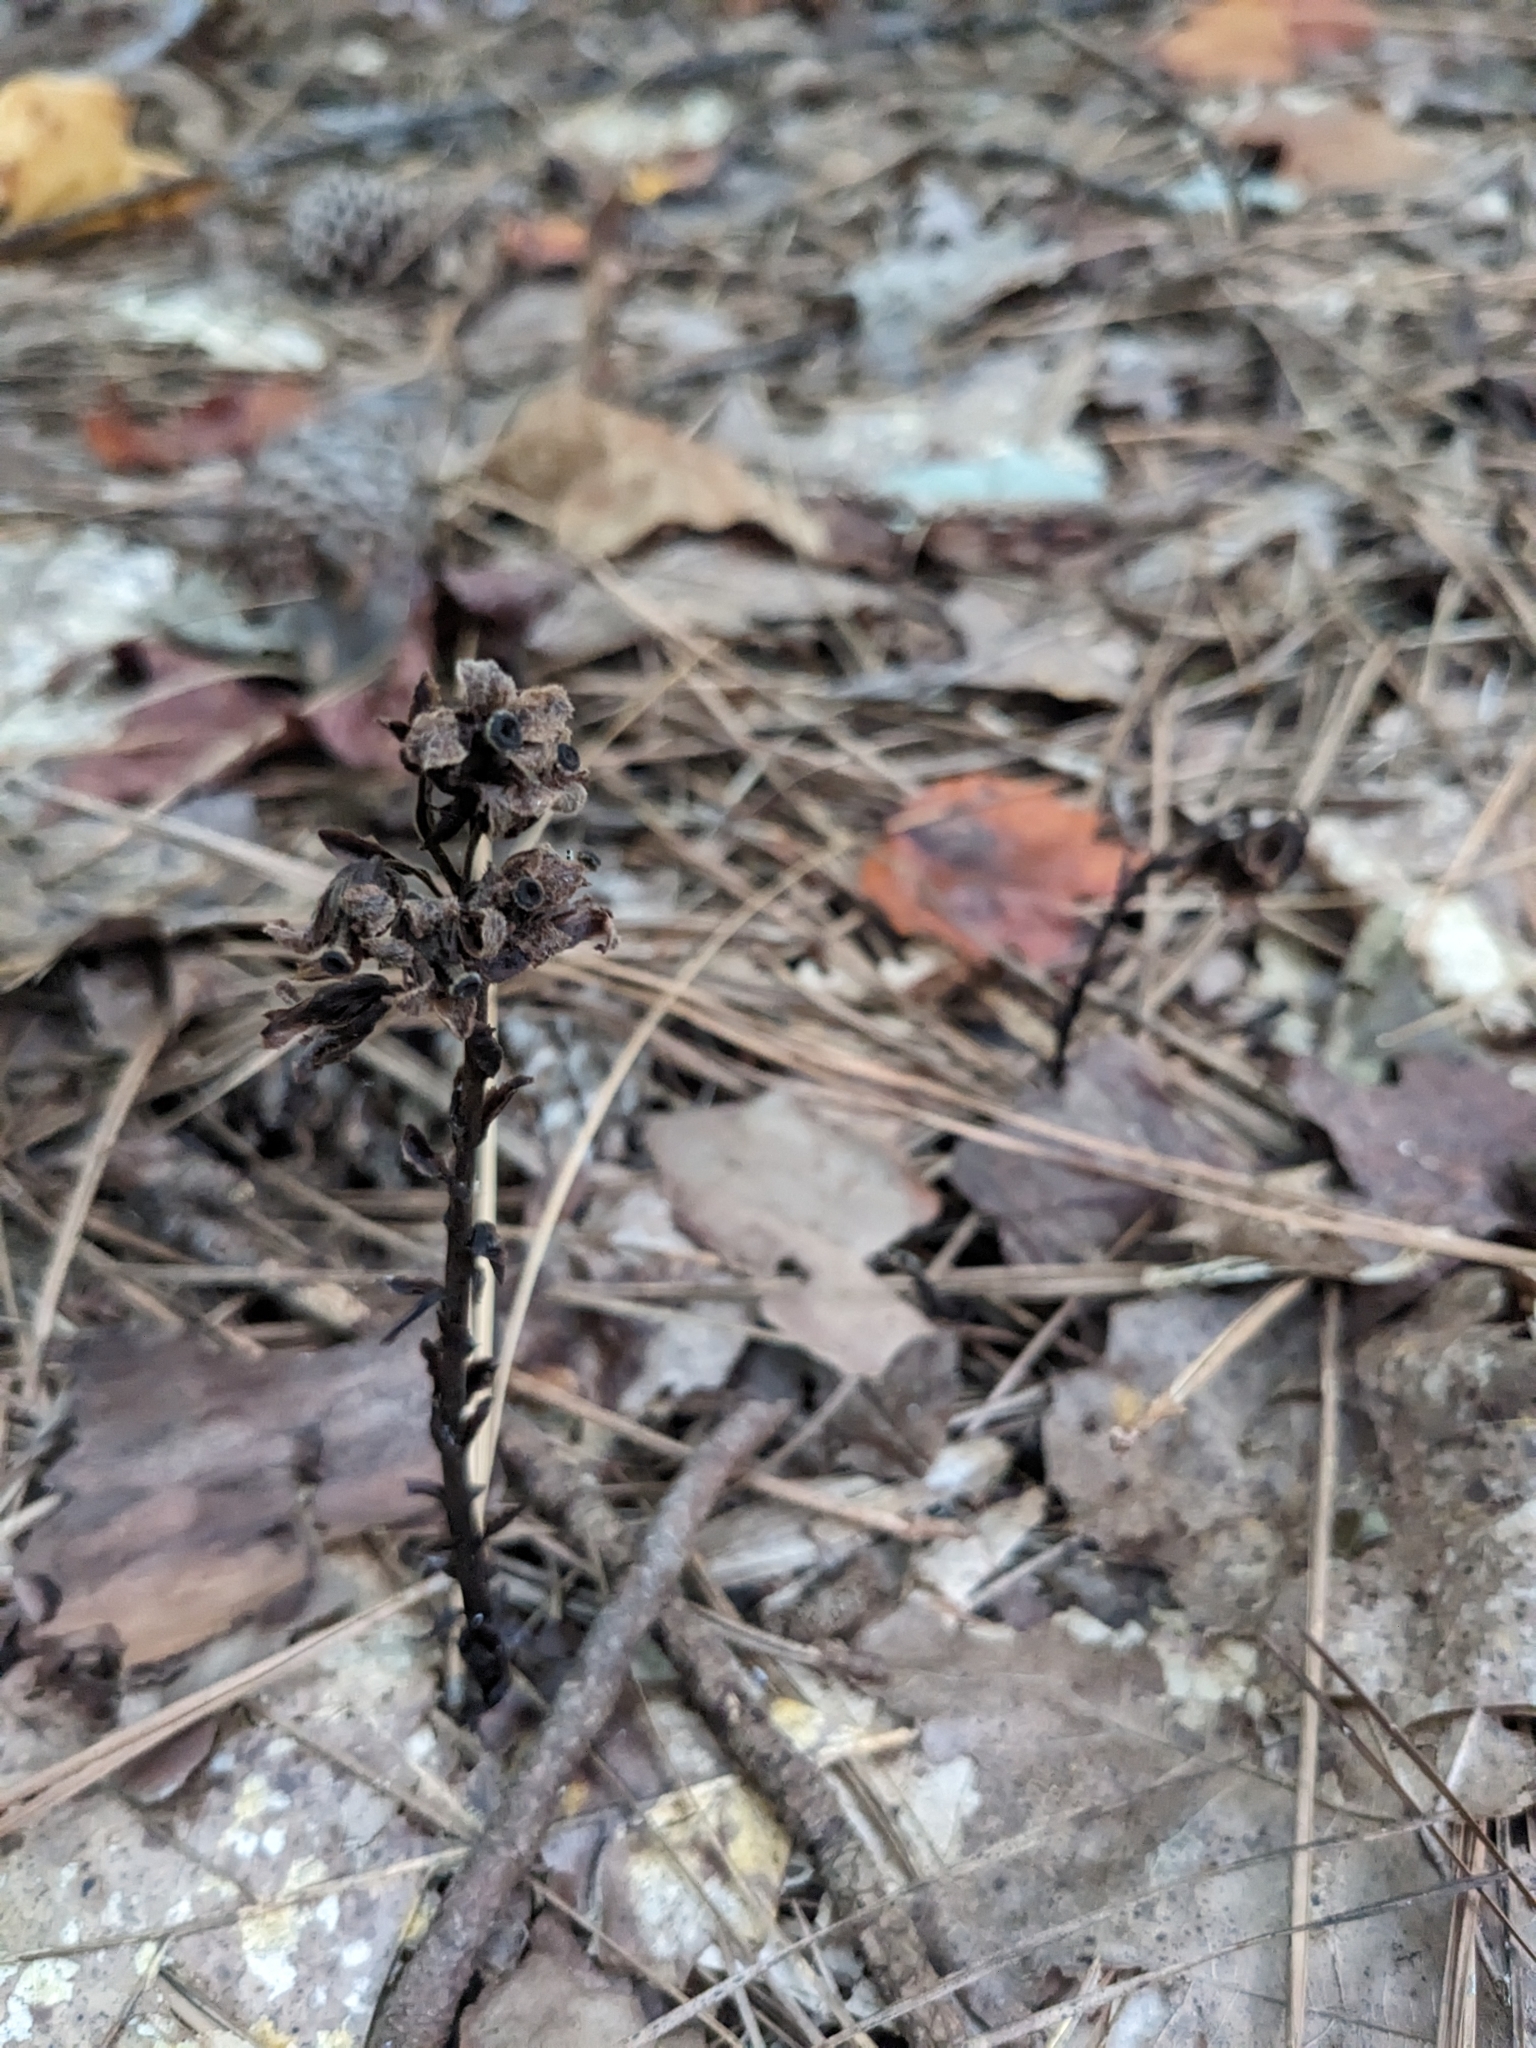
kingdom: Plantae
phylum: Tracheophyta
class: Magnoliopsida
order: Ericales
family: Ericaceae
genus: Hypopitys
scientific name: Hypopitys monotropa
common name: Yellow bird's-nest
